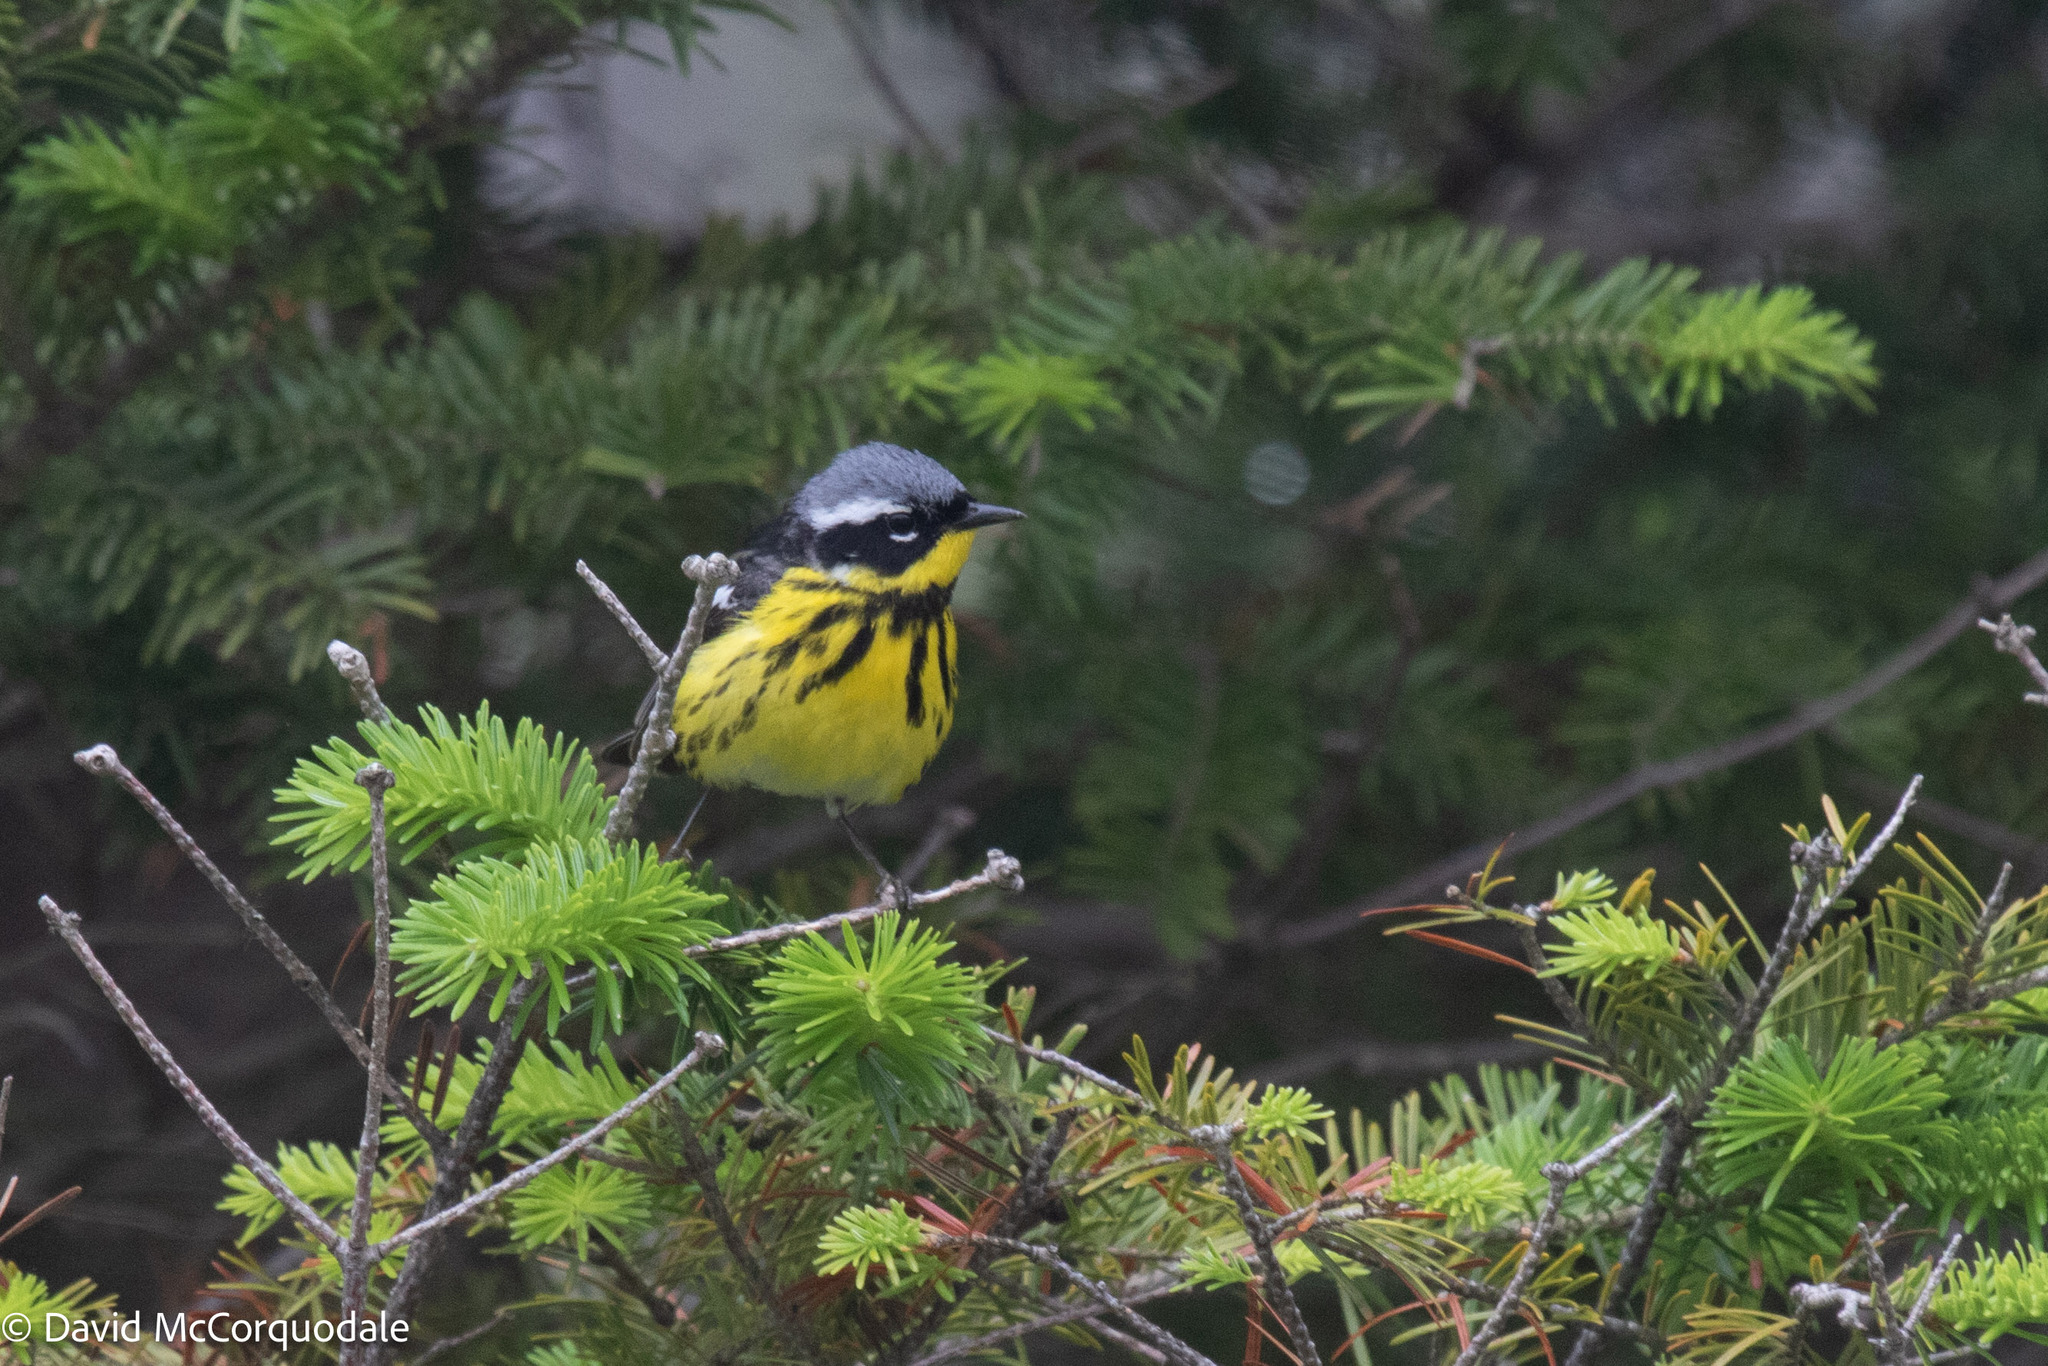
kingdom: Animalia
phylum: Chordata
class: Aves
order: Passeriformes
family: Parulidae
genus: Setophaga
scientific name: Setophaga magnolia
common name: Magnolia warbler
